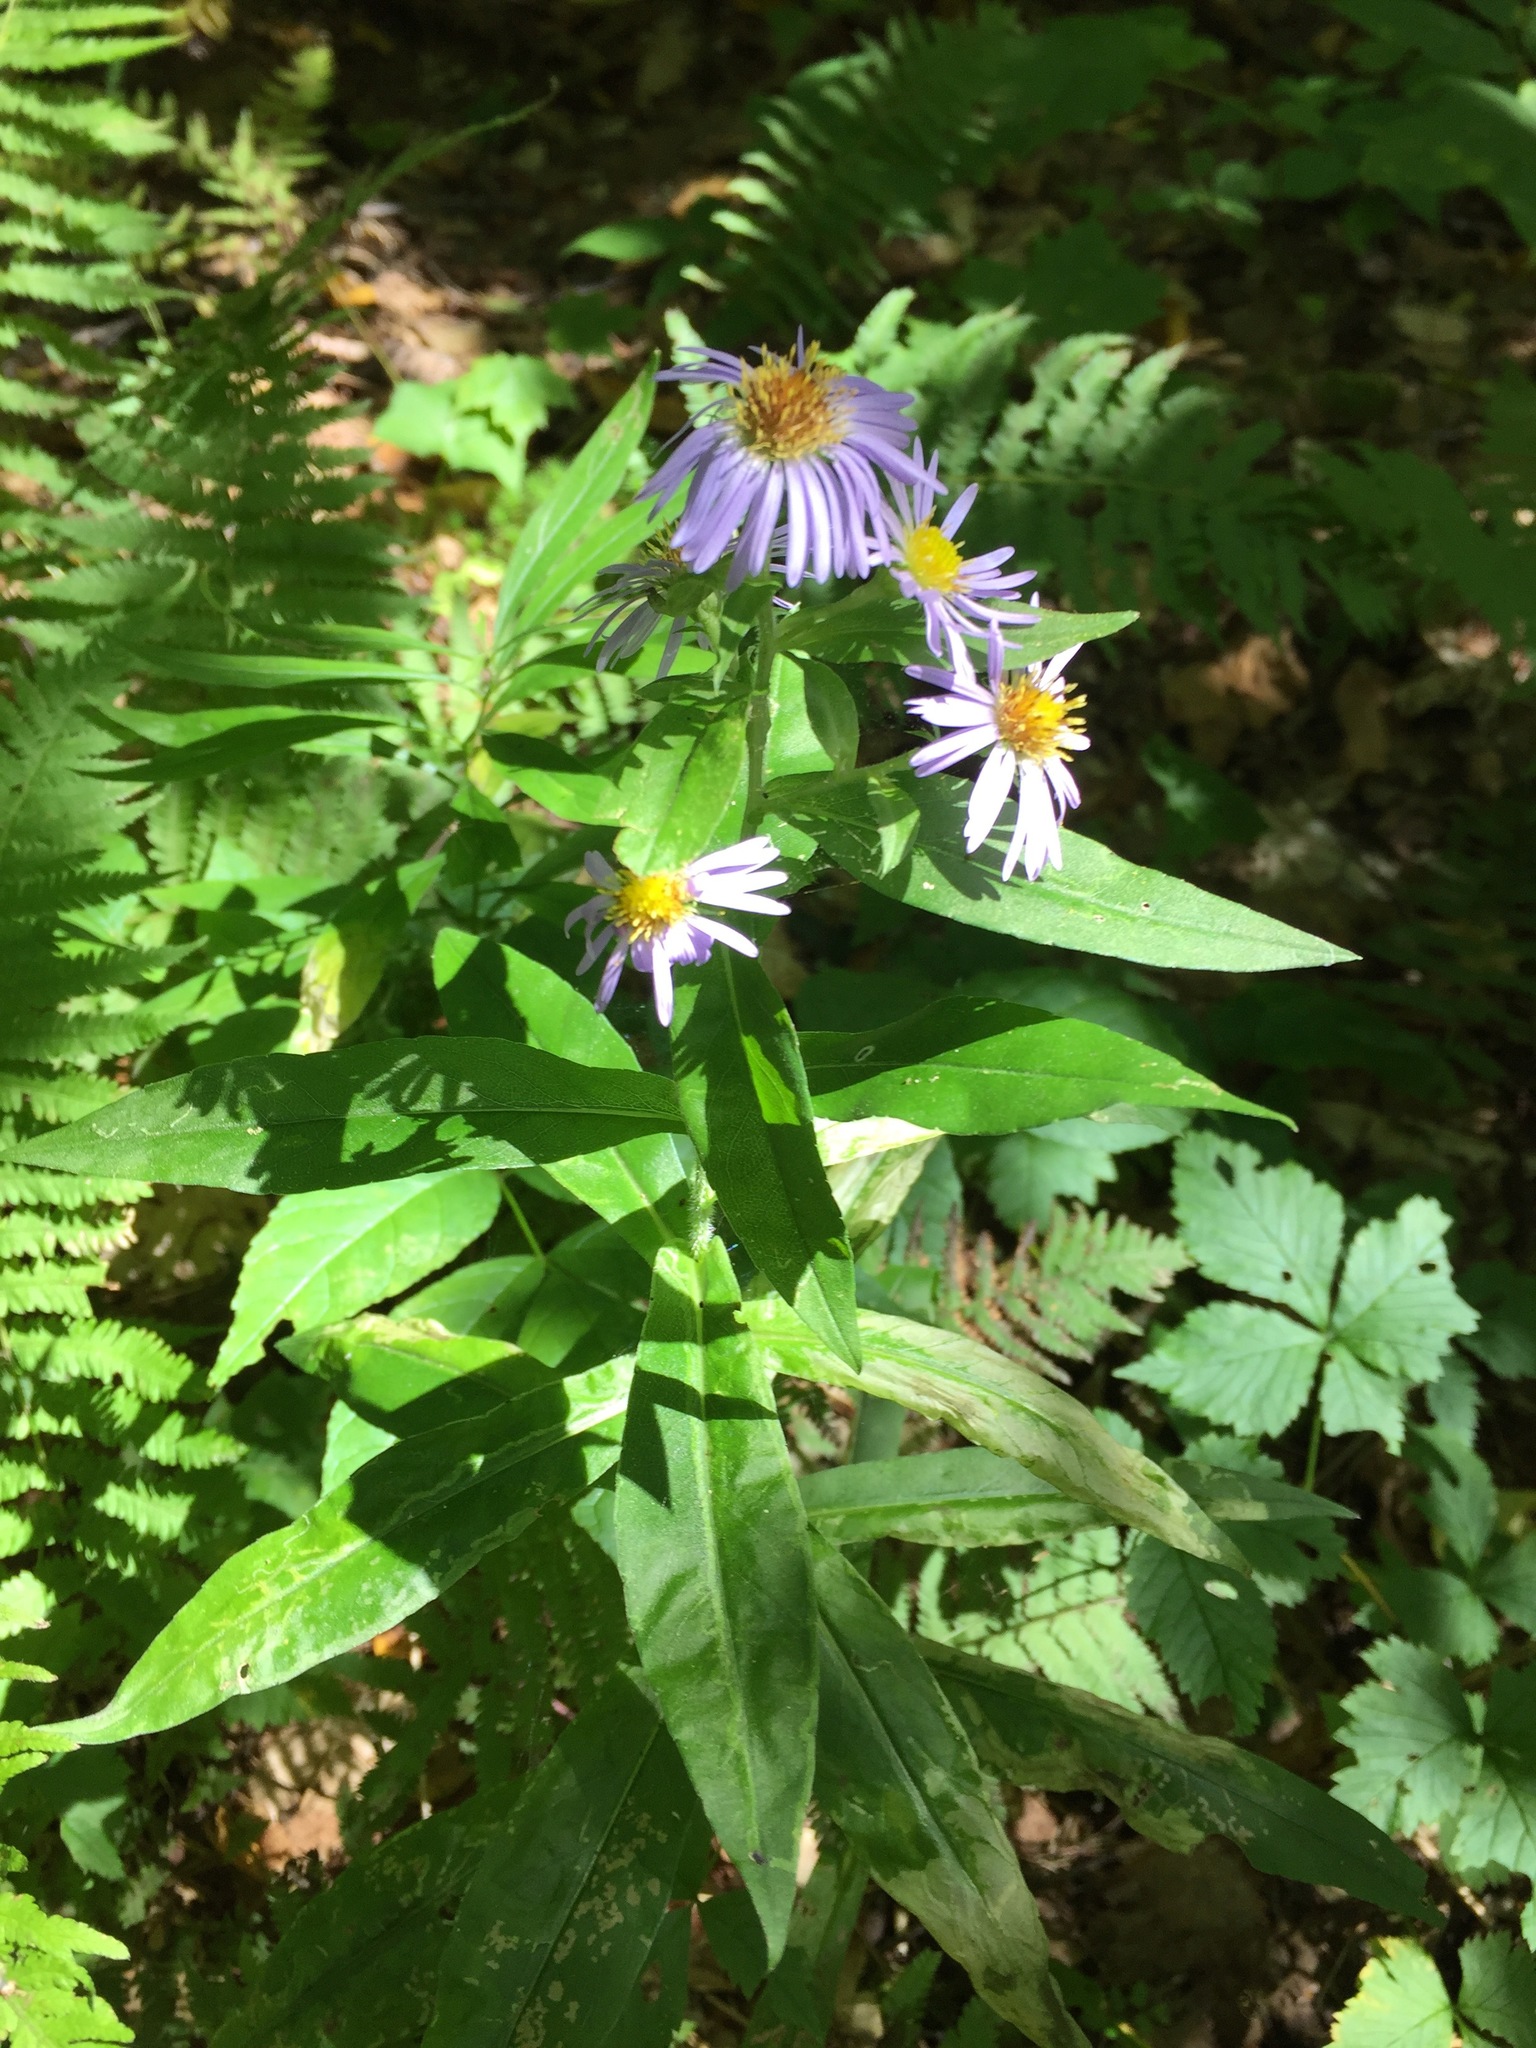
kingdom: Plantae
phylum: Tracheophyta
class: Magnoliopsida
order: Asterales
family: Asteraceae
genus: Symphyotrichum
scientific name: Symphyotrichum puniceum
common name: Bog aster
